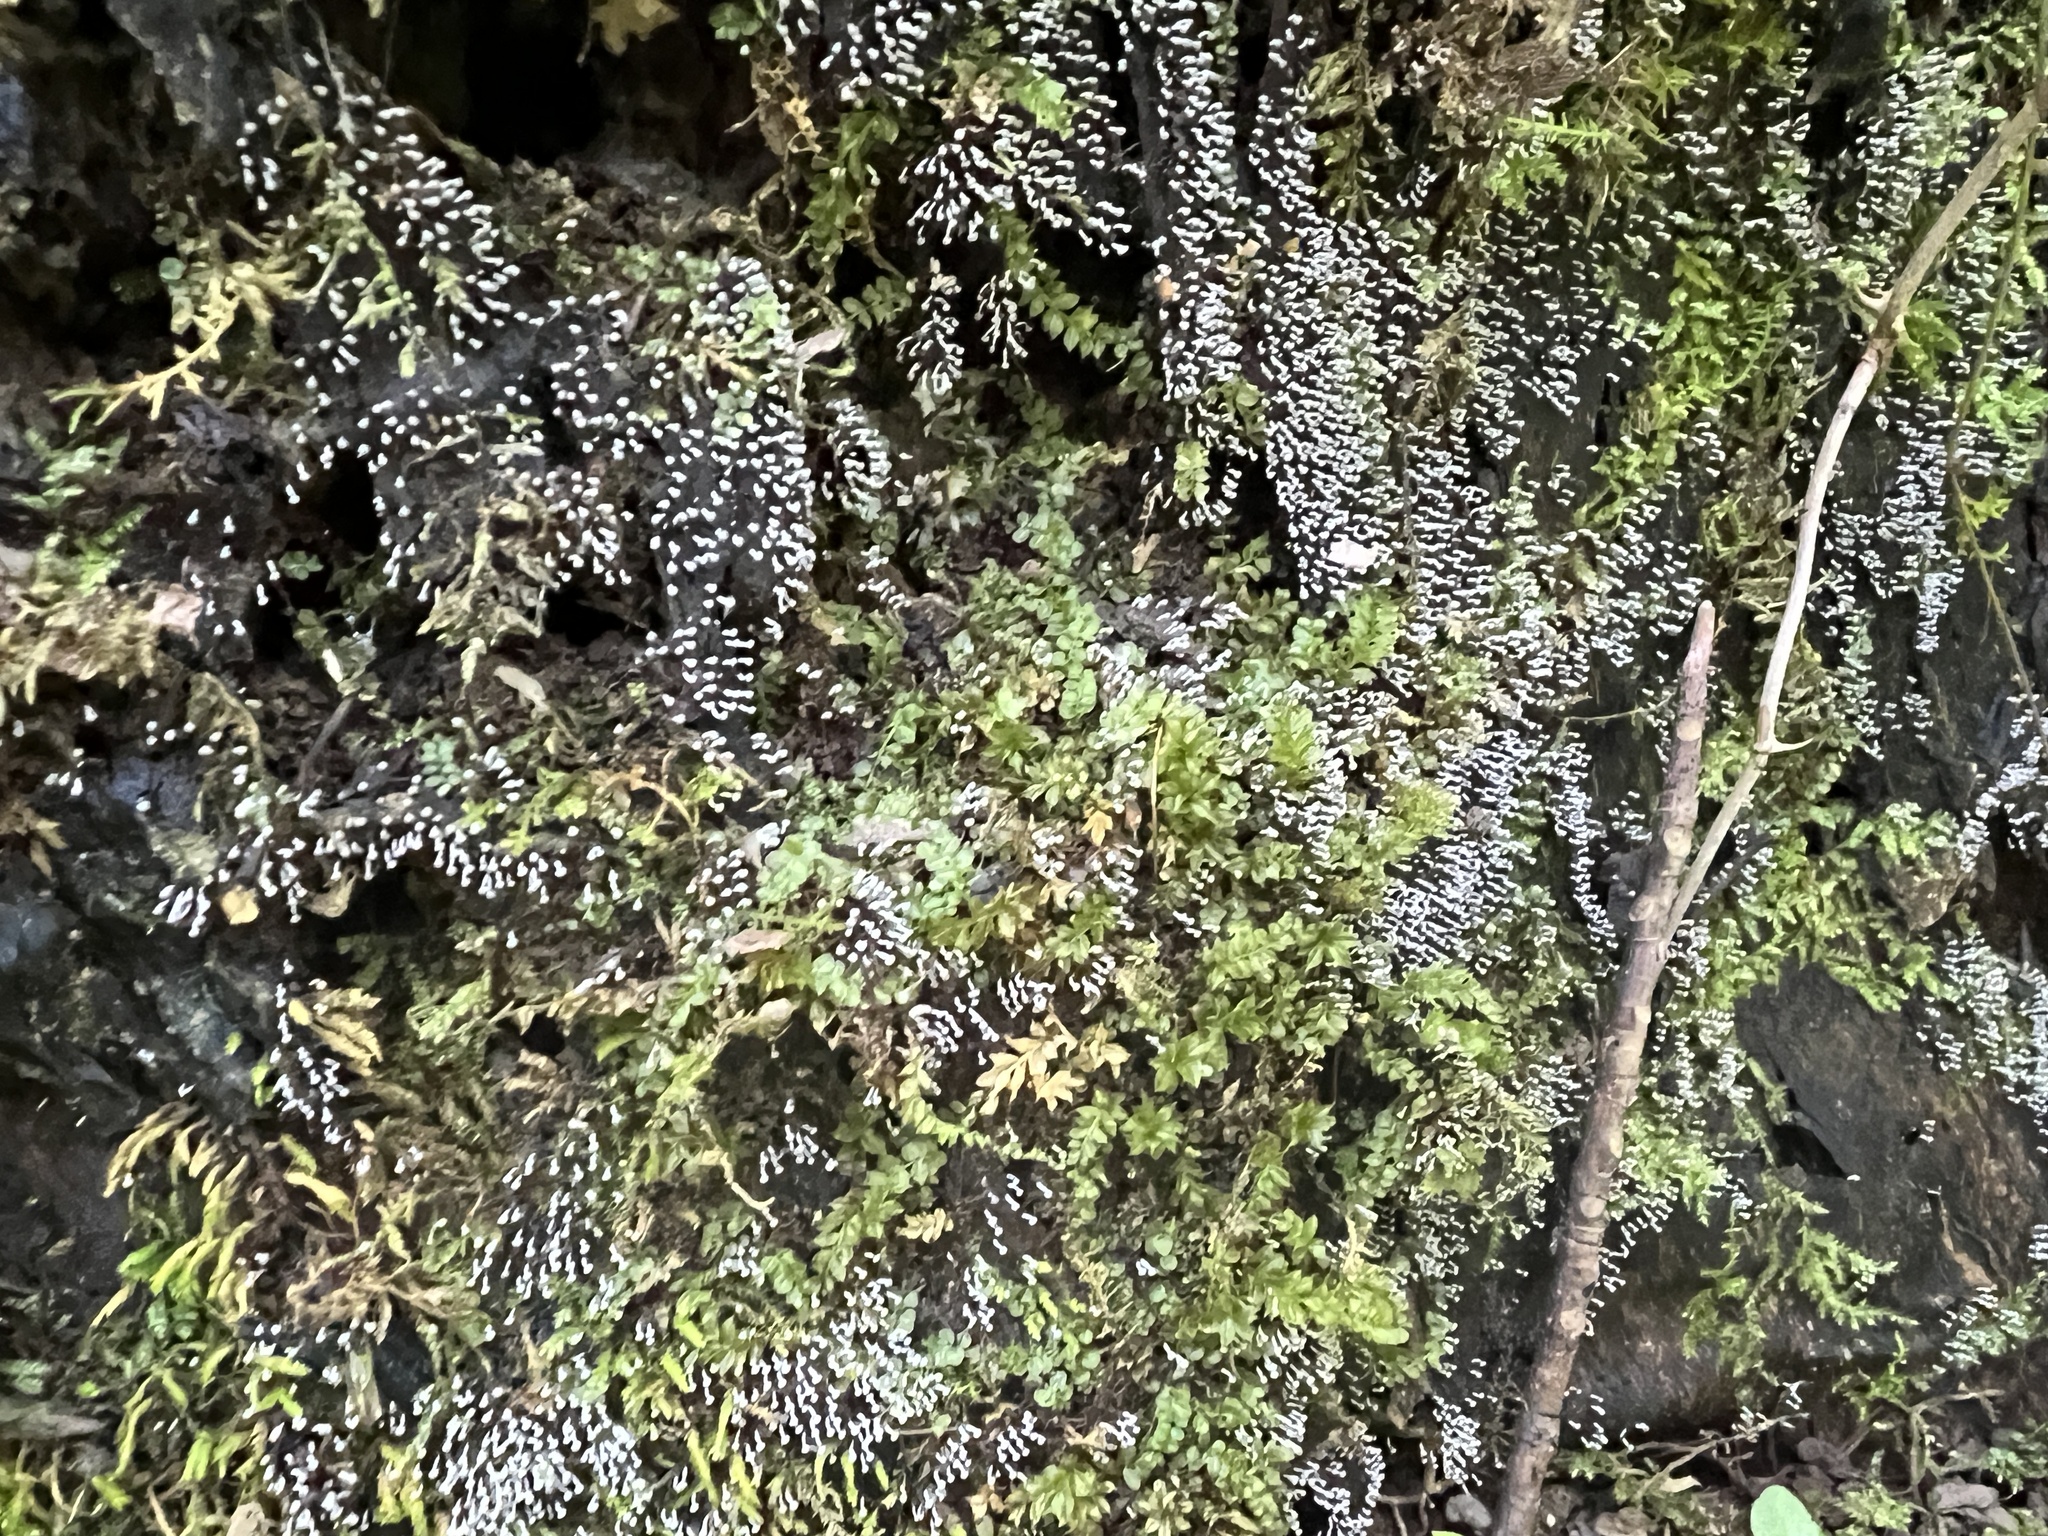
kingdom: Protozoa
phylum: Mycetozoa
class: Myxomycetes
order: Physarales
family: Physaraceae
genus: Physarum
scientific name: Physarum album
